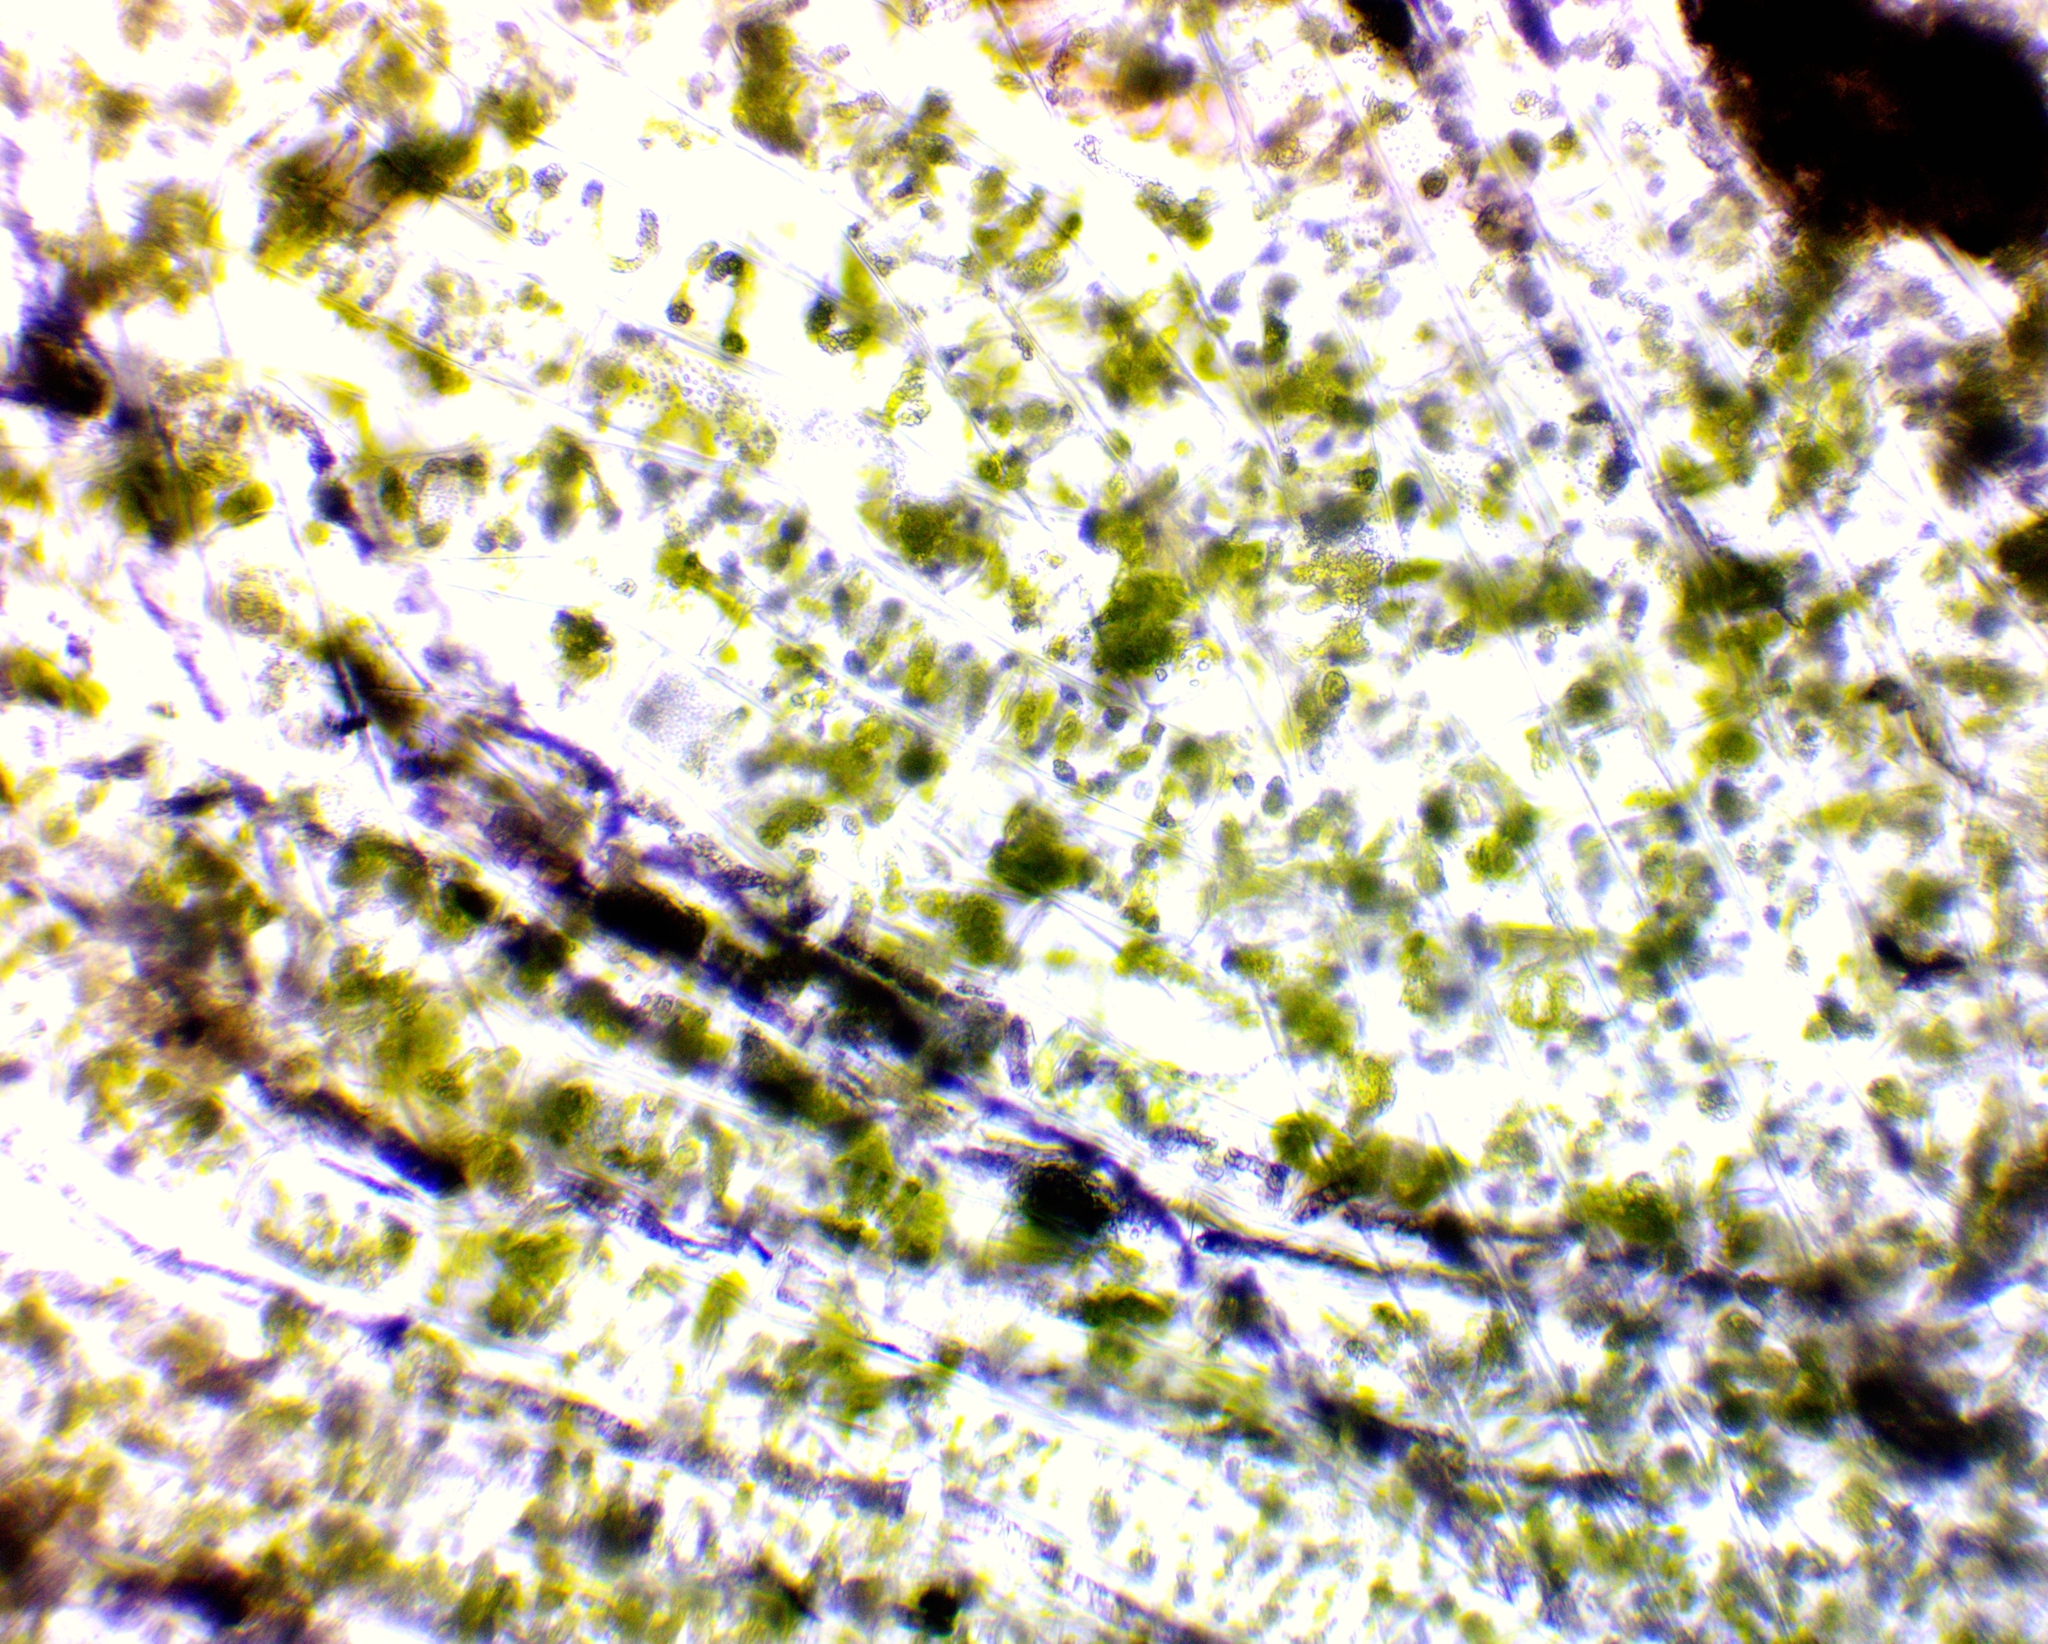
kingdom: Plantae
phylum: Charophyta
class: Zygnematophyceae
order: Zygnematales
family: Zygnemataceae
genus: Spirogyra
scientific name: Spirogyra
